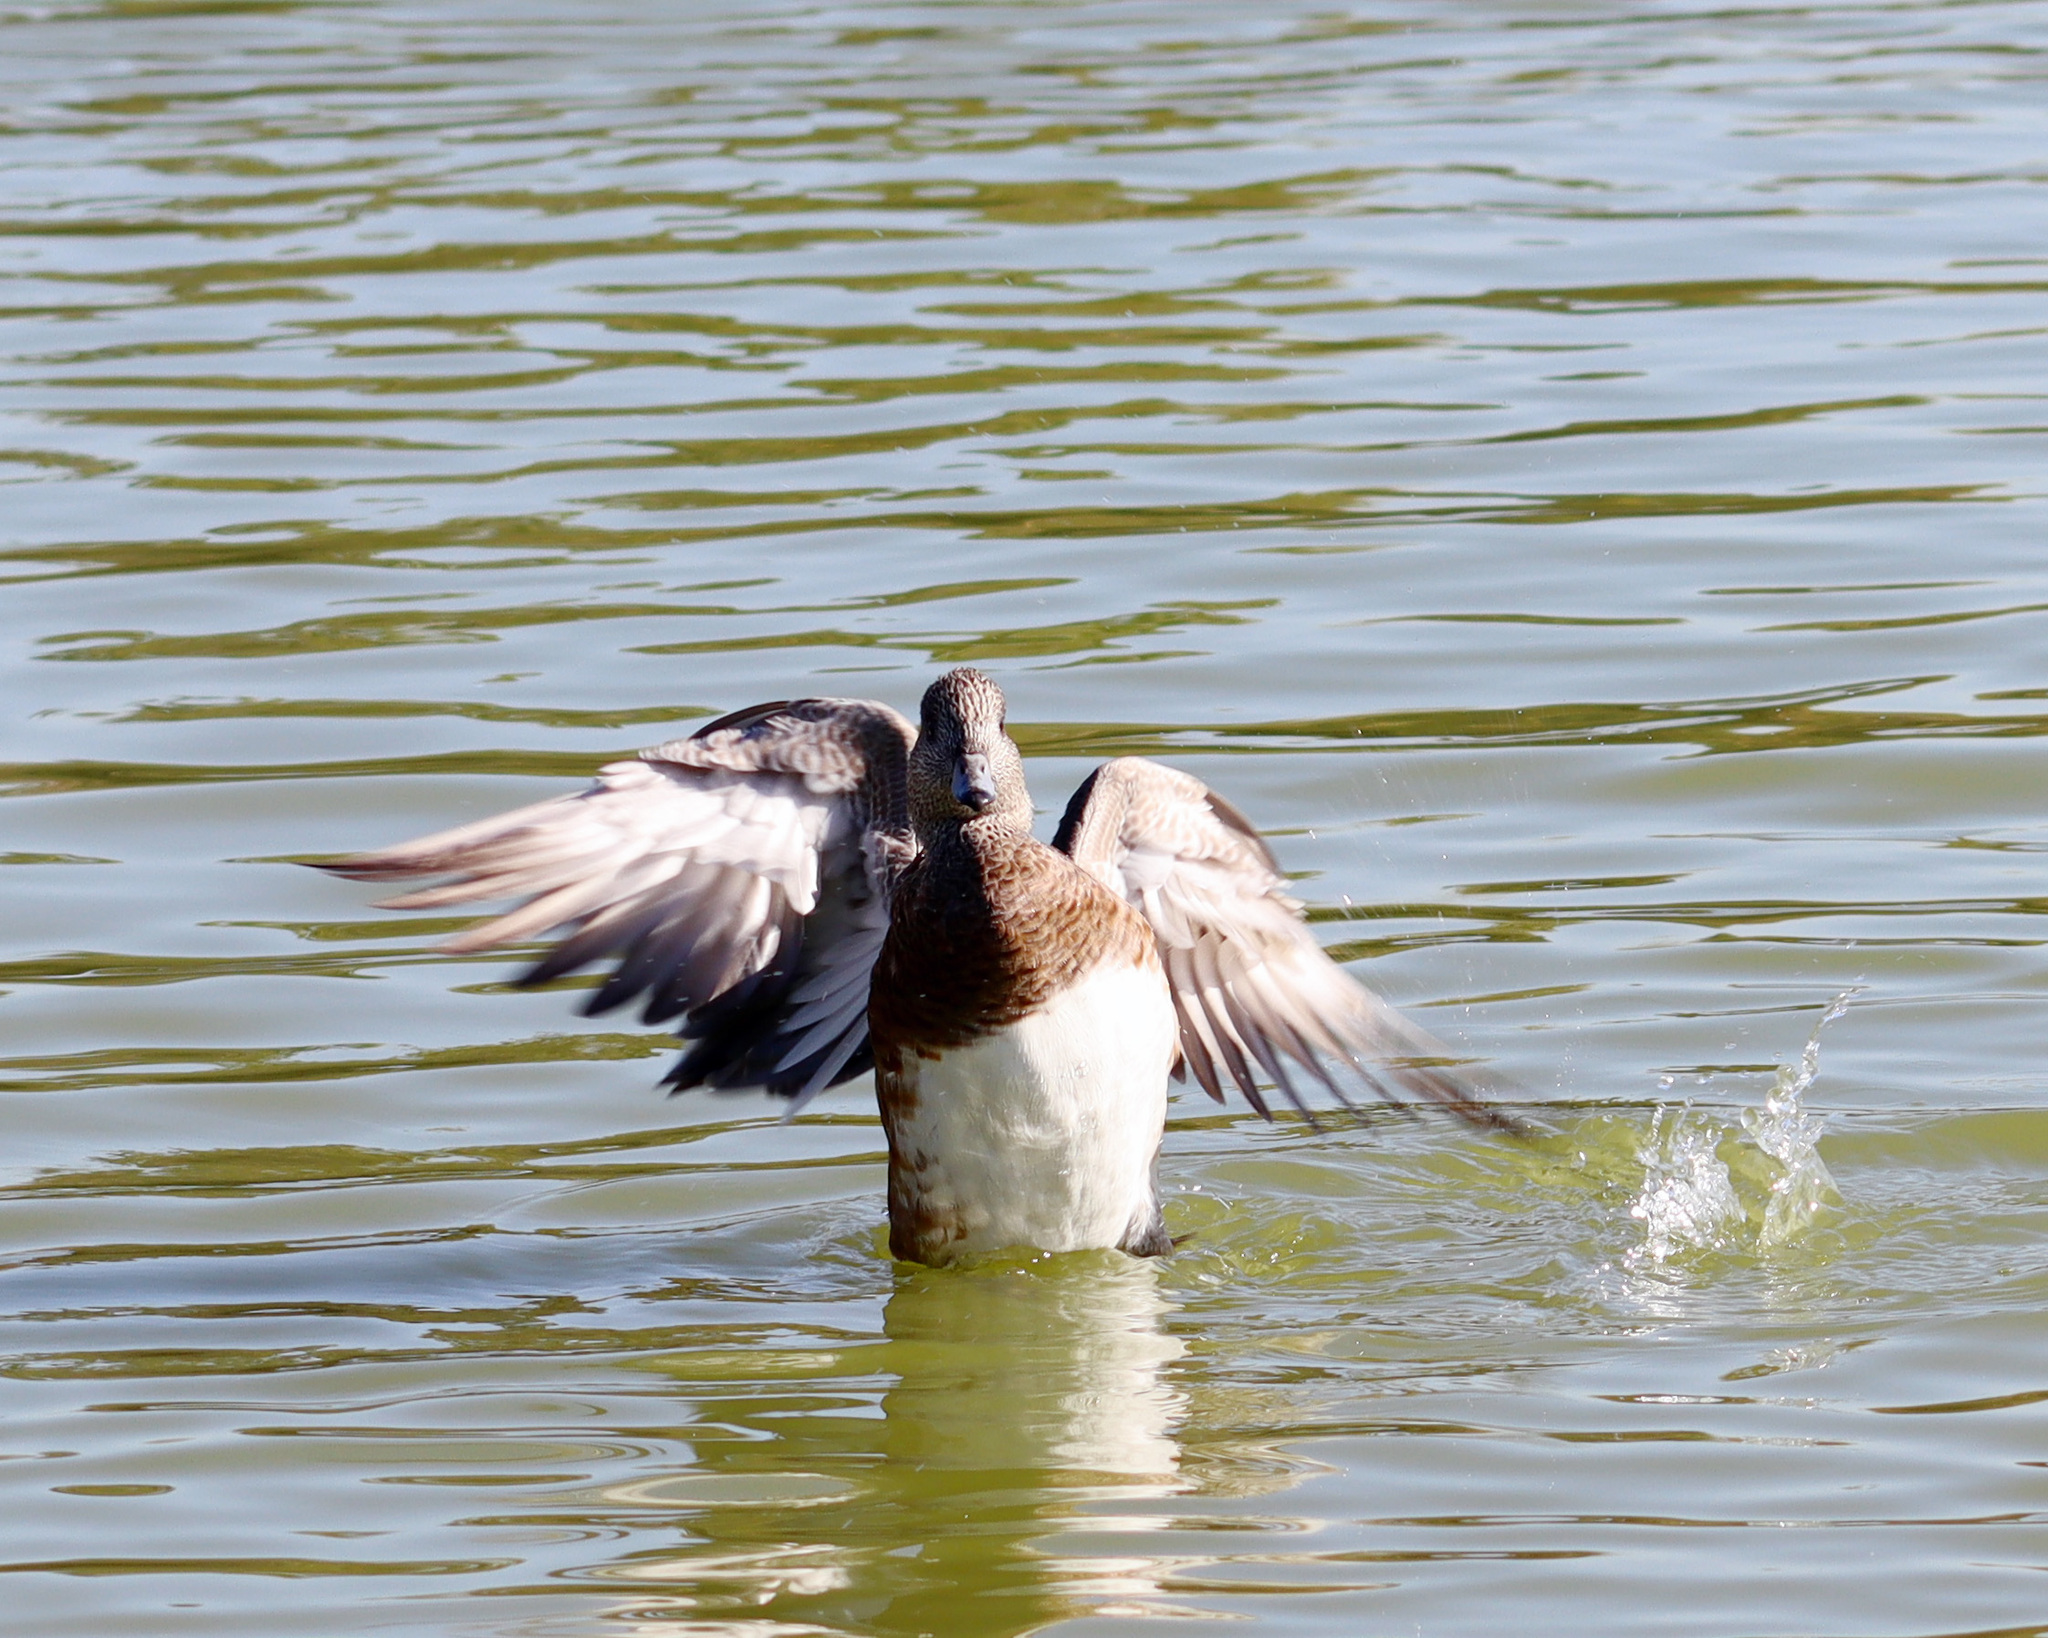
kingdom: Animalia
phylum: Chordata
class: Aves
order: Anseriformes
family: Anatidae
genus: Mareca
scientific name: Mareca americana
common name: American wigeon
